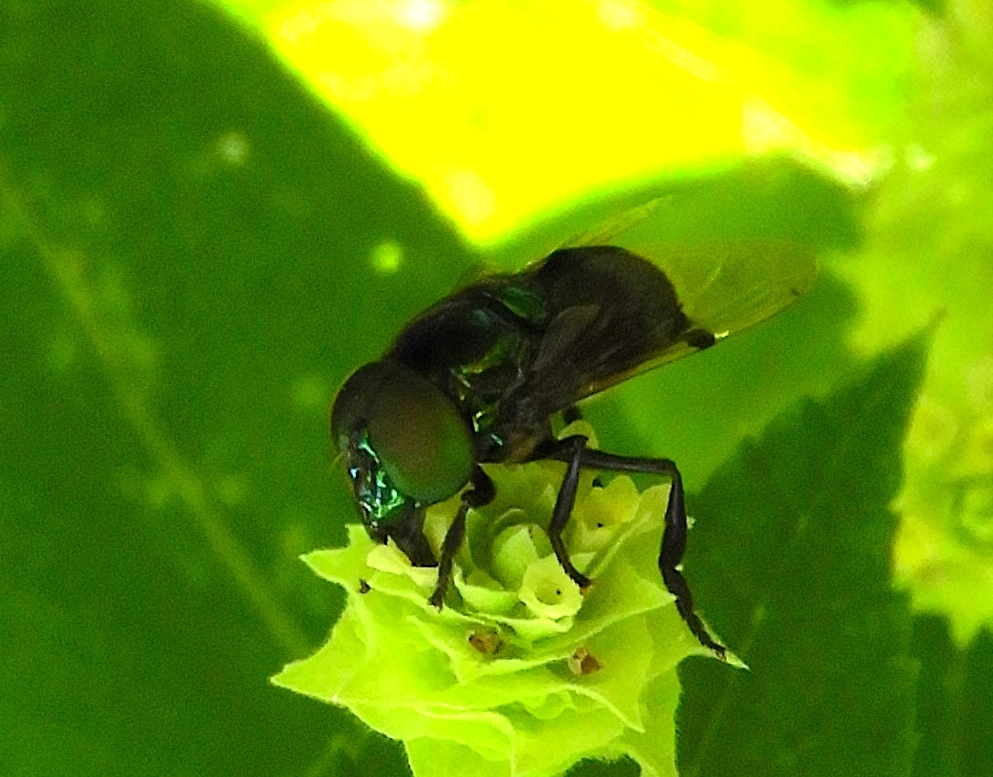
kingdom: Animalia
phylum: Arthropoda
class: Insecta
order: Diptera
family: Syrphidae
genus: Ornidia
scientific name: Ornidia obesa
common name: Syrphid fly
